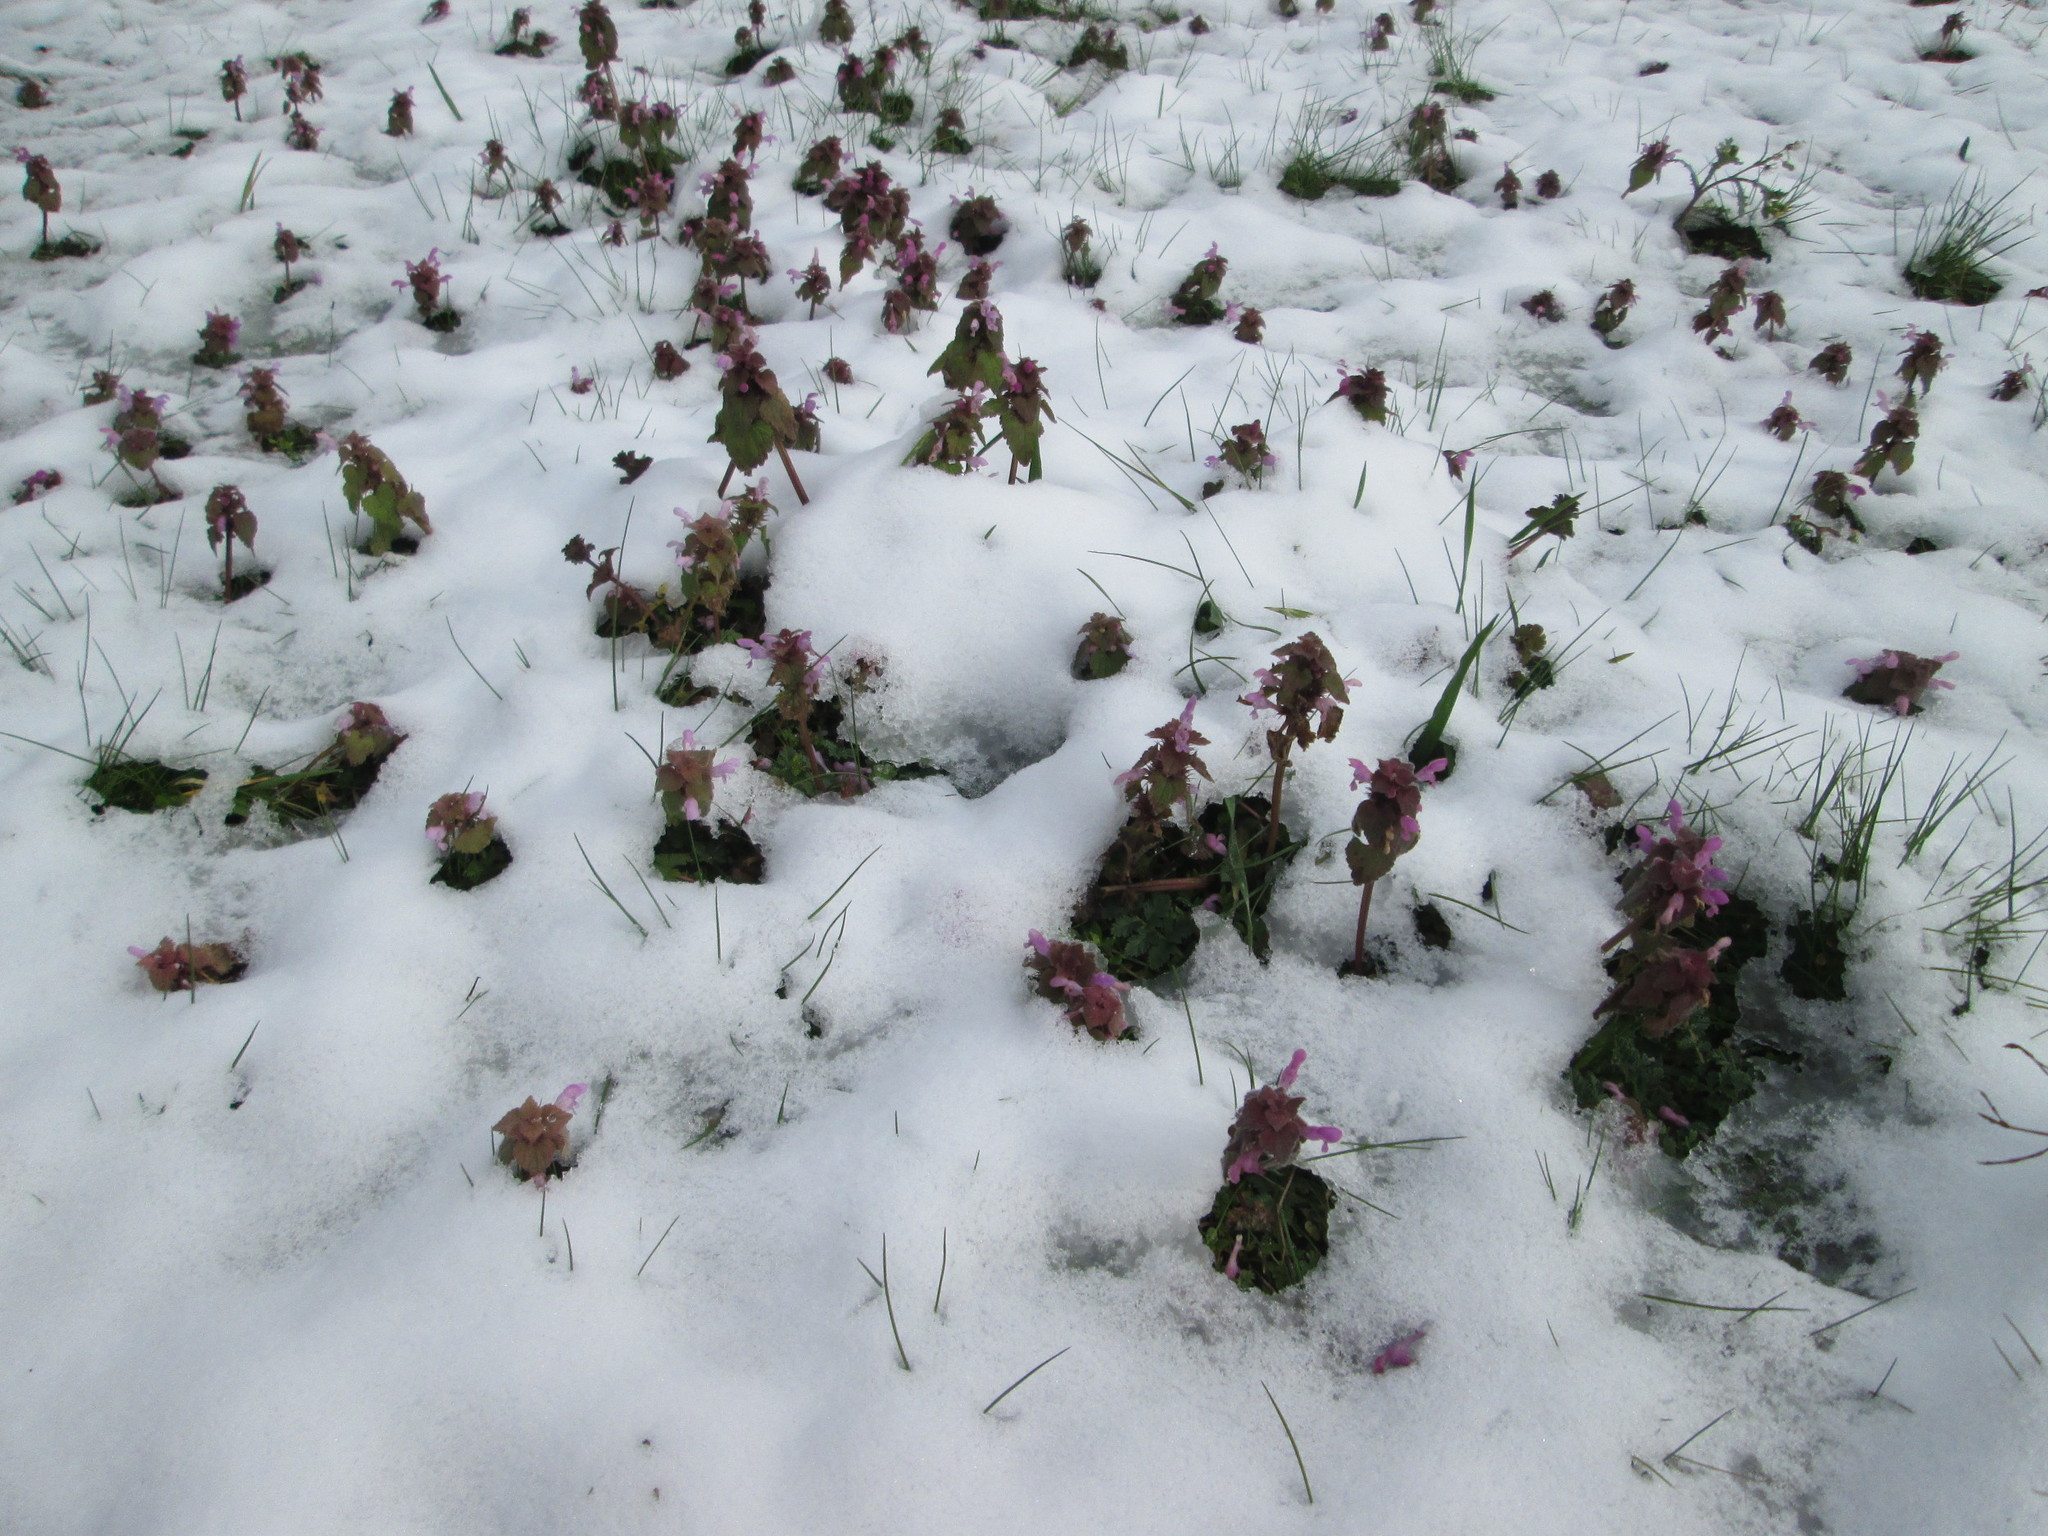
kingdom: Plantae
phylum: Tracheophyta
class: Magnoliopsida
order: Lamiales
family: Lamiaceae
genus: Lamium
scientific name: Lamium purpureum
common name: Red dead-nettle
